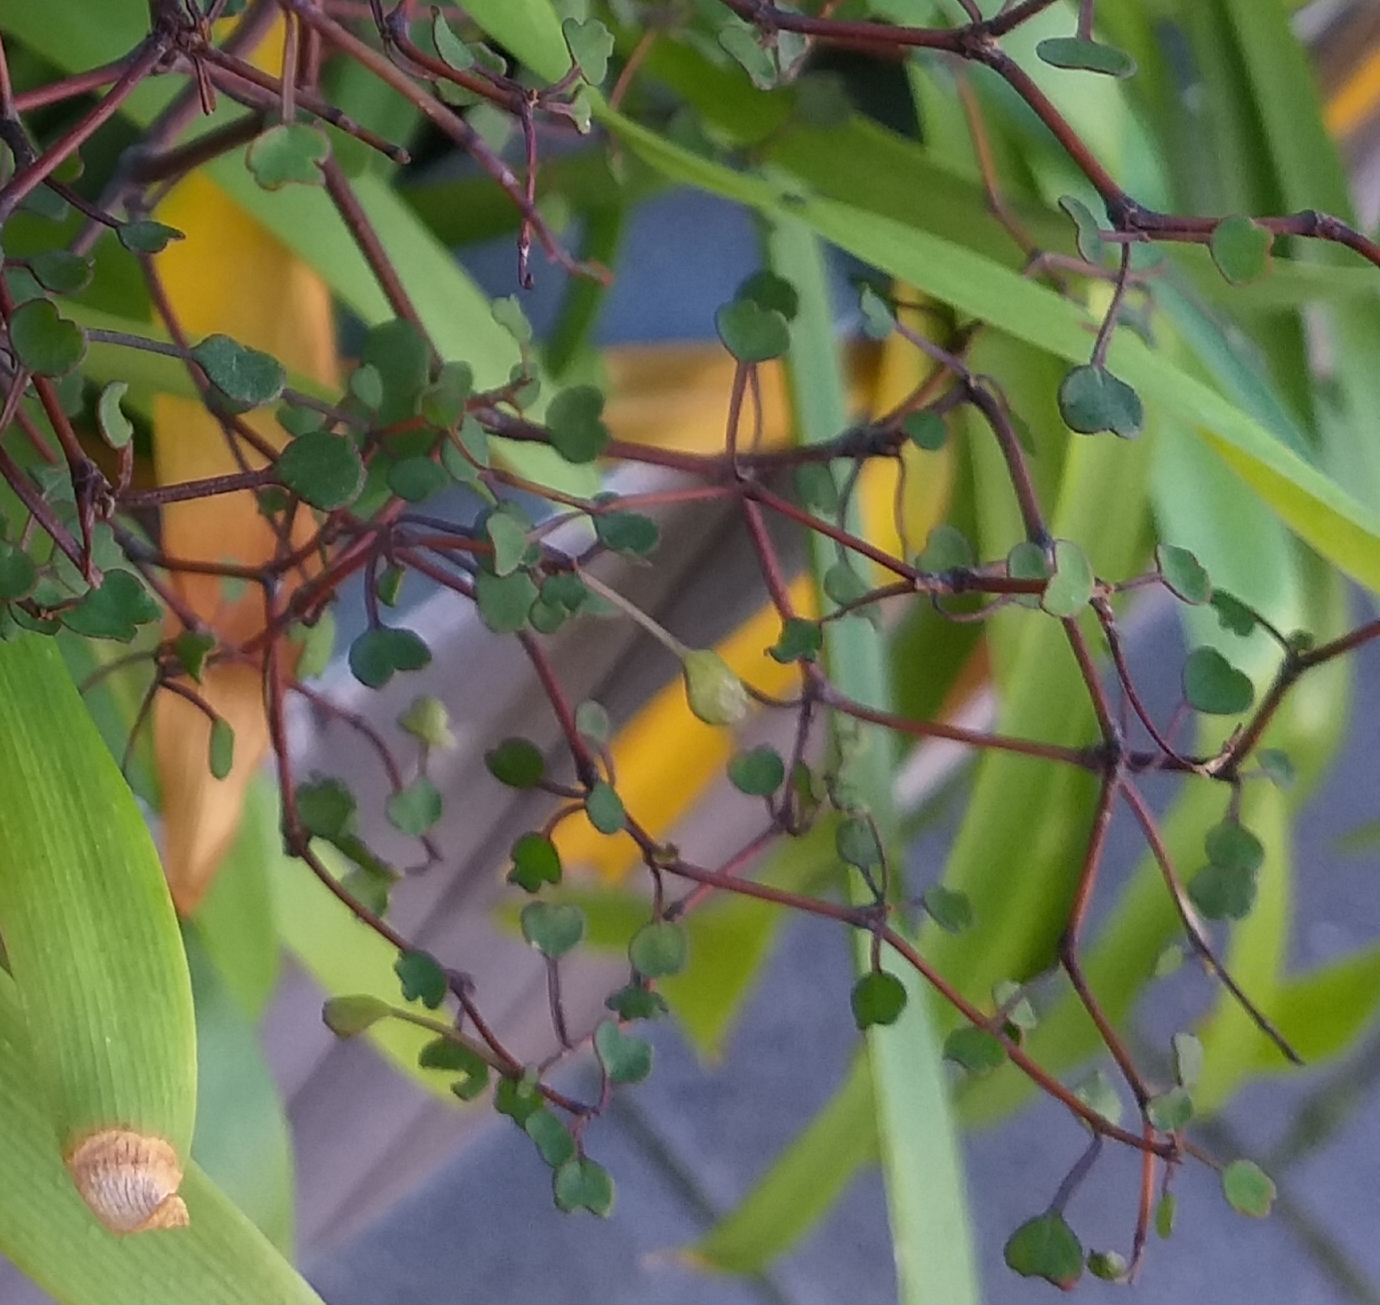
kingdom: Plantae
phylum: Tracheophyta
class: Magnoliopsida
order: Caryophyllales
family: Polygonaceae
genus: Muehlenbeckia
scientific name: Muehlenbeckia complexa
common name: Wireplant
